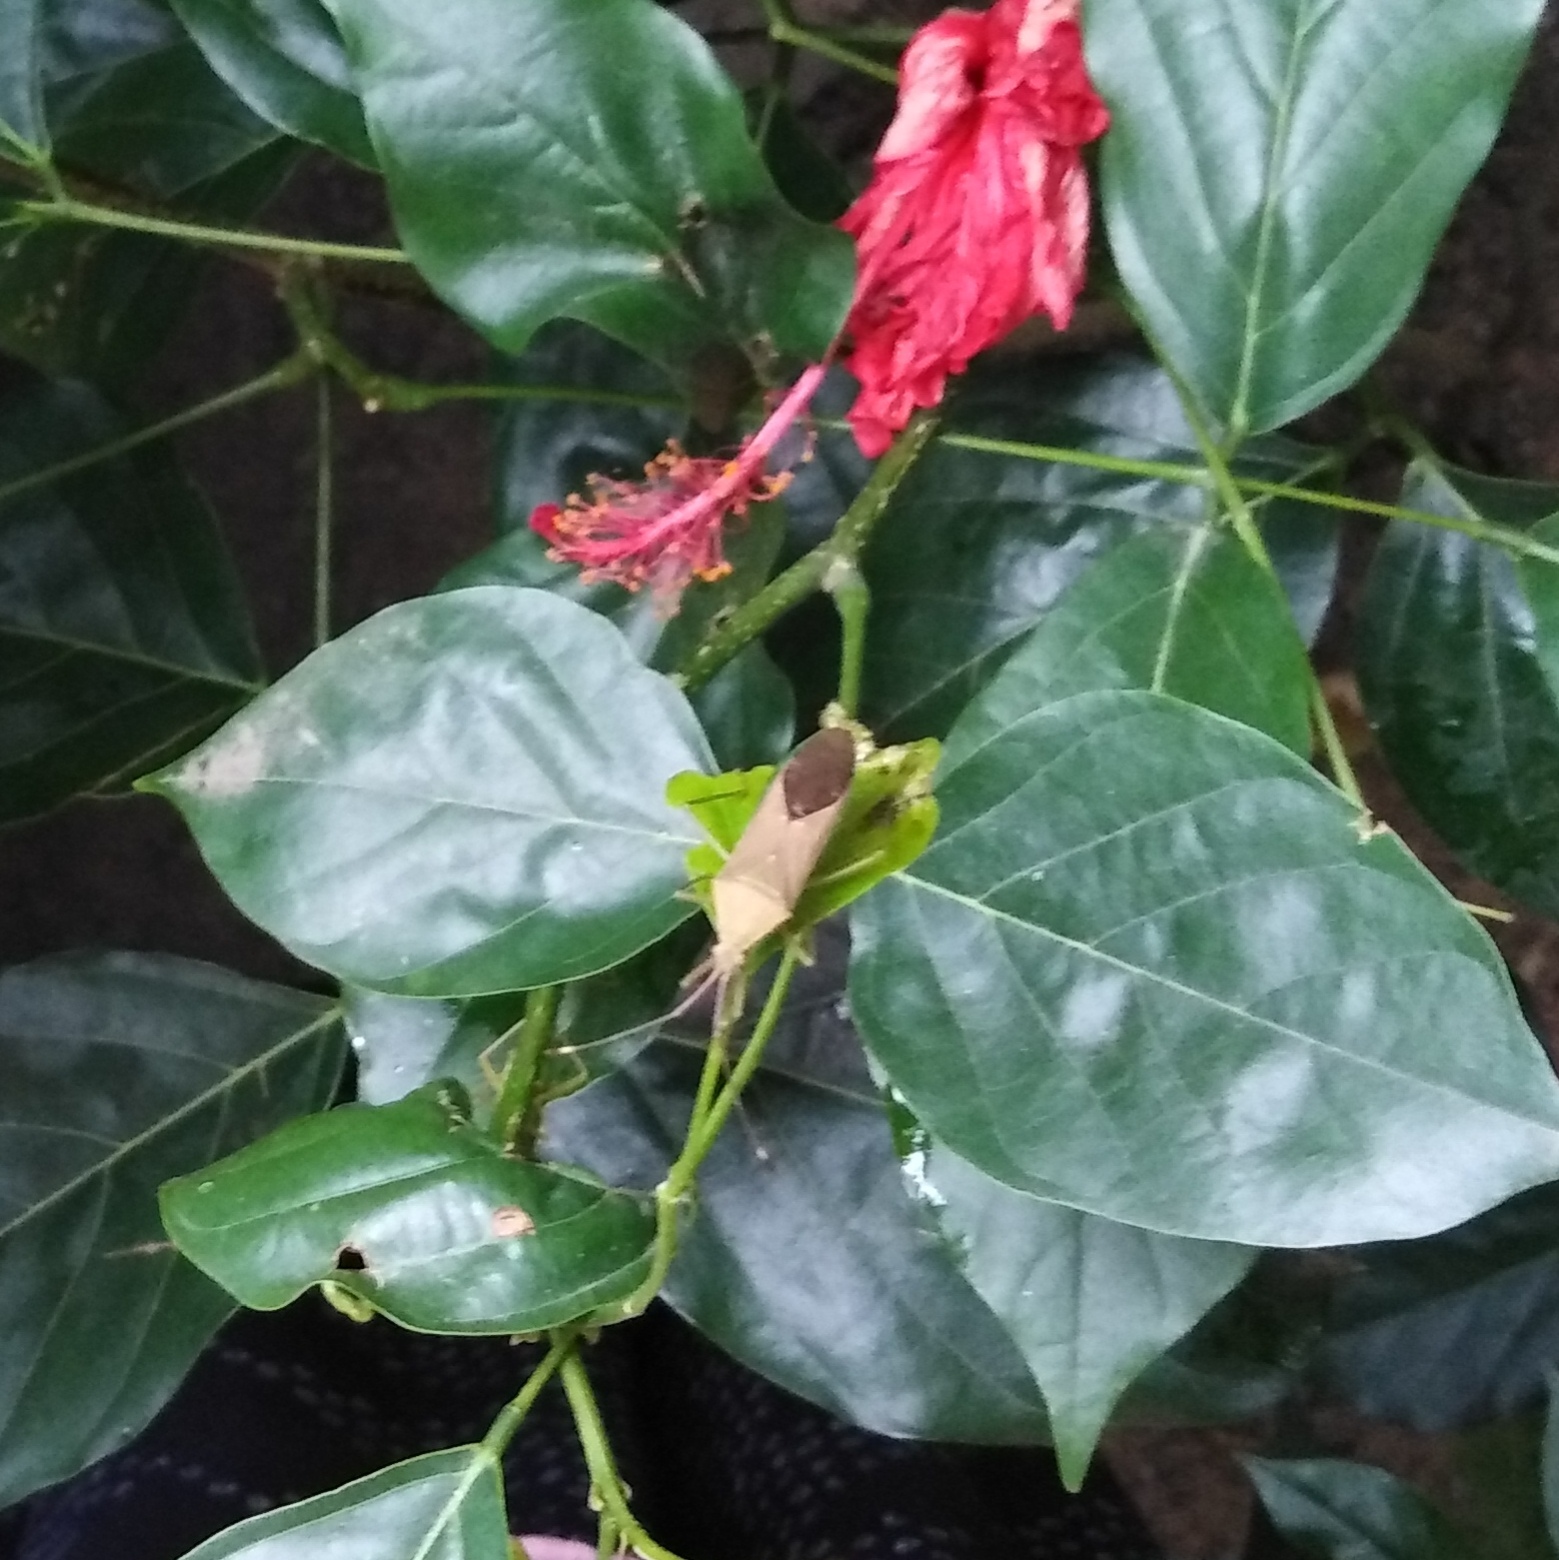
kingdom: Animalia
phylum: Arthropoda
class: Insecta
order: Hemiptera
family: Coreidae
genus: Homoeocerus
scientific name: Homoeocerus relatus
